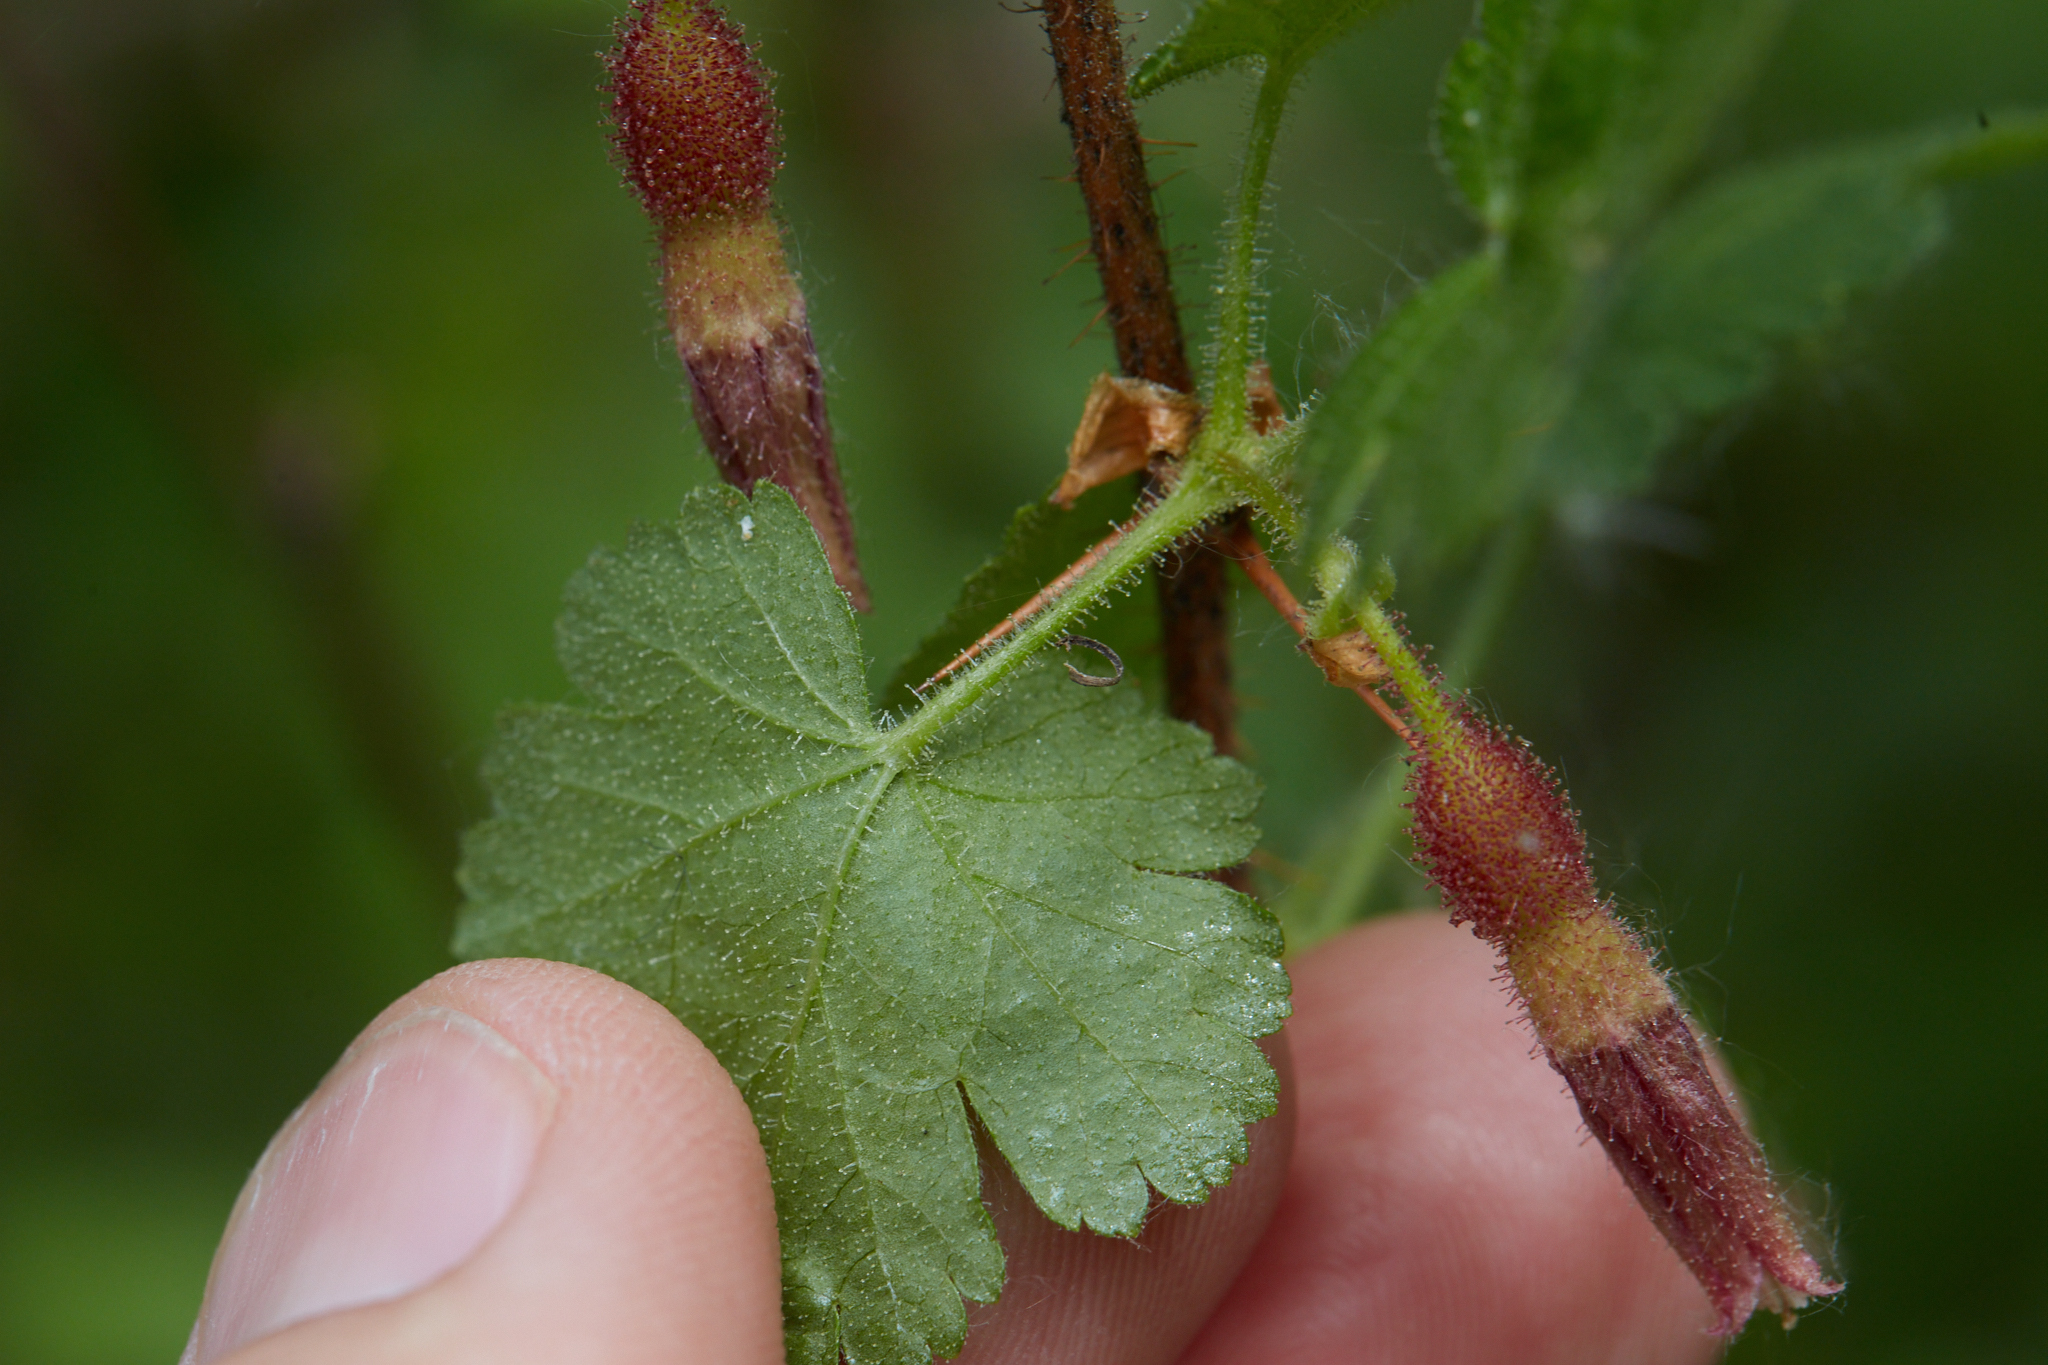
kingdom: Plantae
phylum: Tracheophyta
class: Magnoliopsida
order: Saxifragales
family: Grossulariaceae
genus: Ribes
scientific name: Ribes menziesii
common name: Canyon gooseberry
